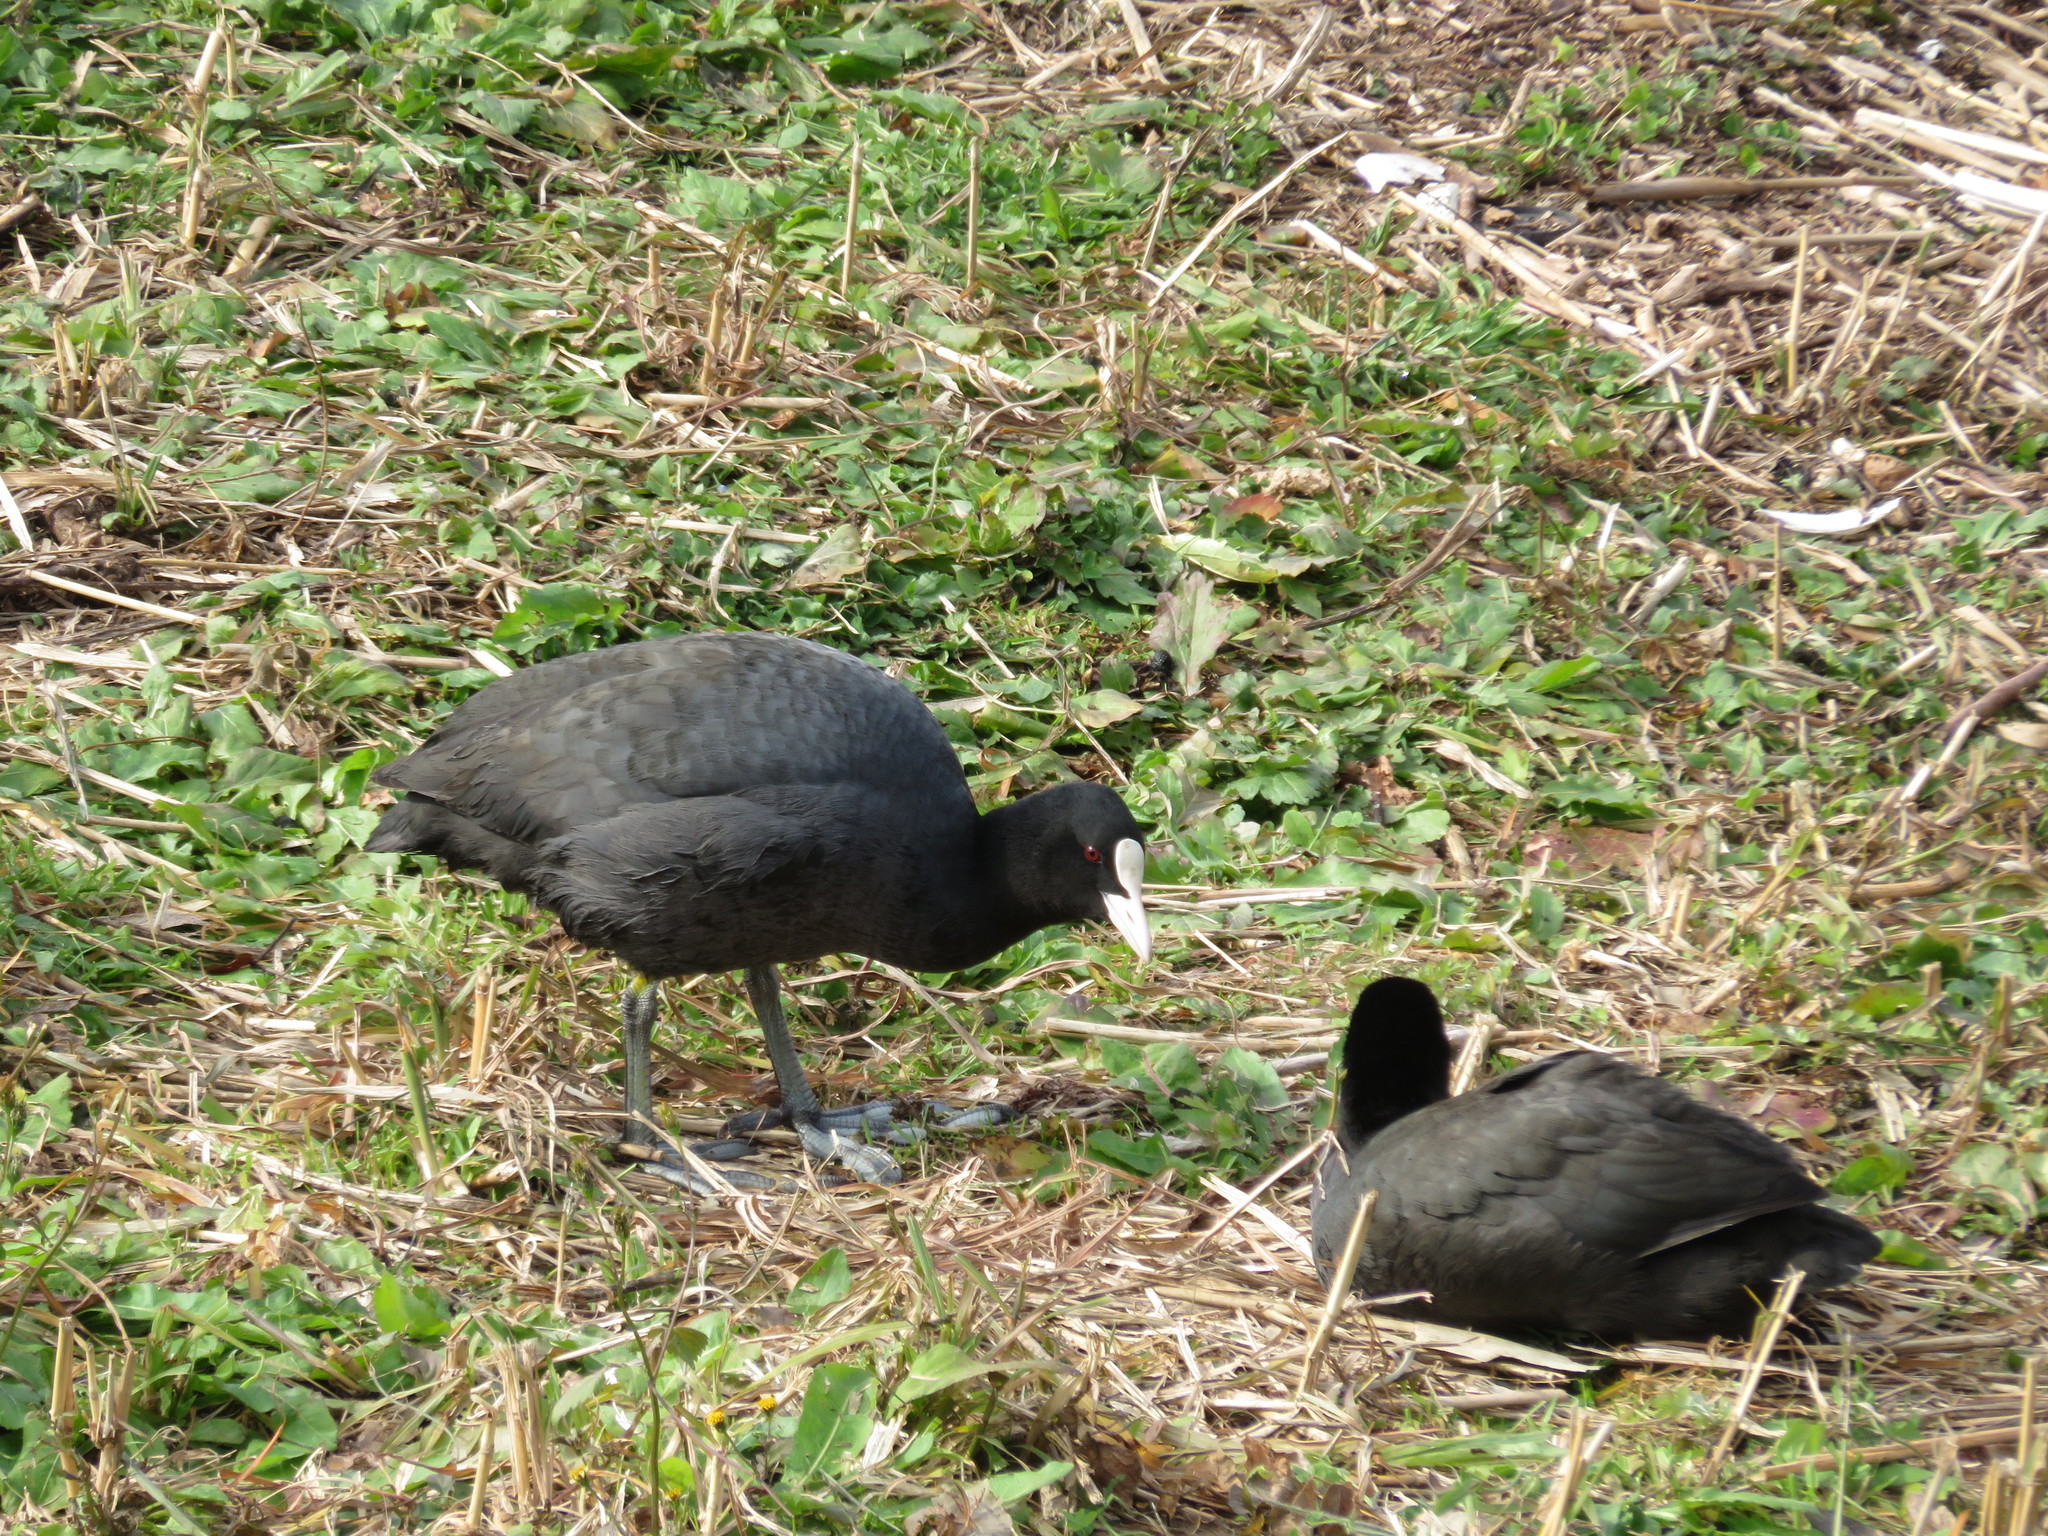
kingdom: Animalia
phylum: Chordata
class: Aves
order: Gruiformes
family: Rallidae
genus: Fulica
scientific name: Fulica atra
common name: Eurasian coot
